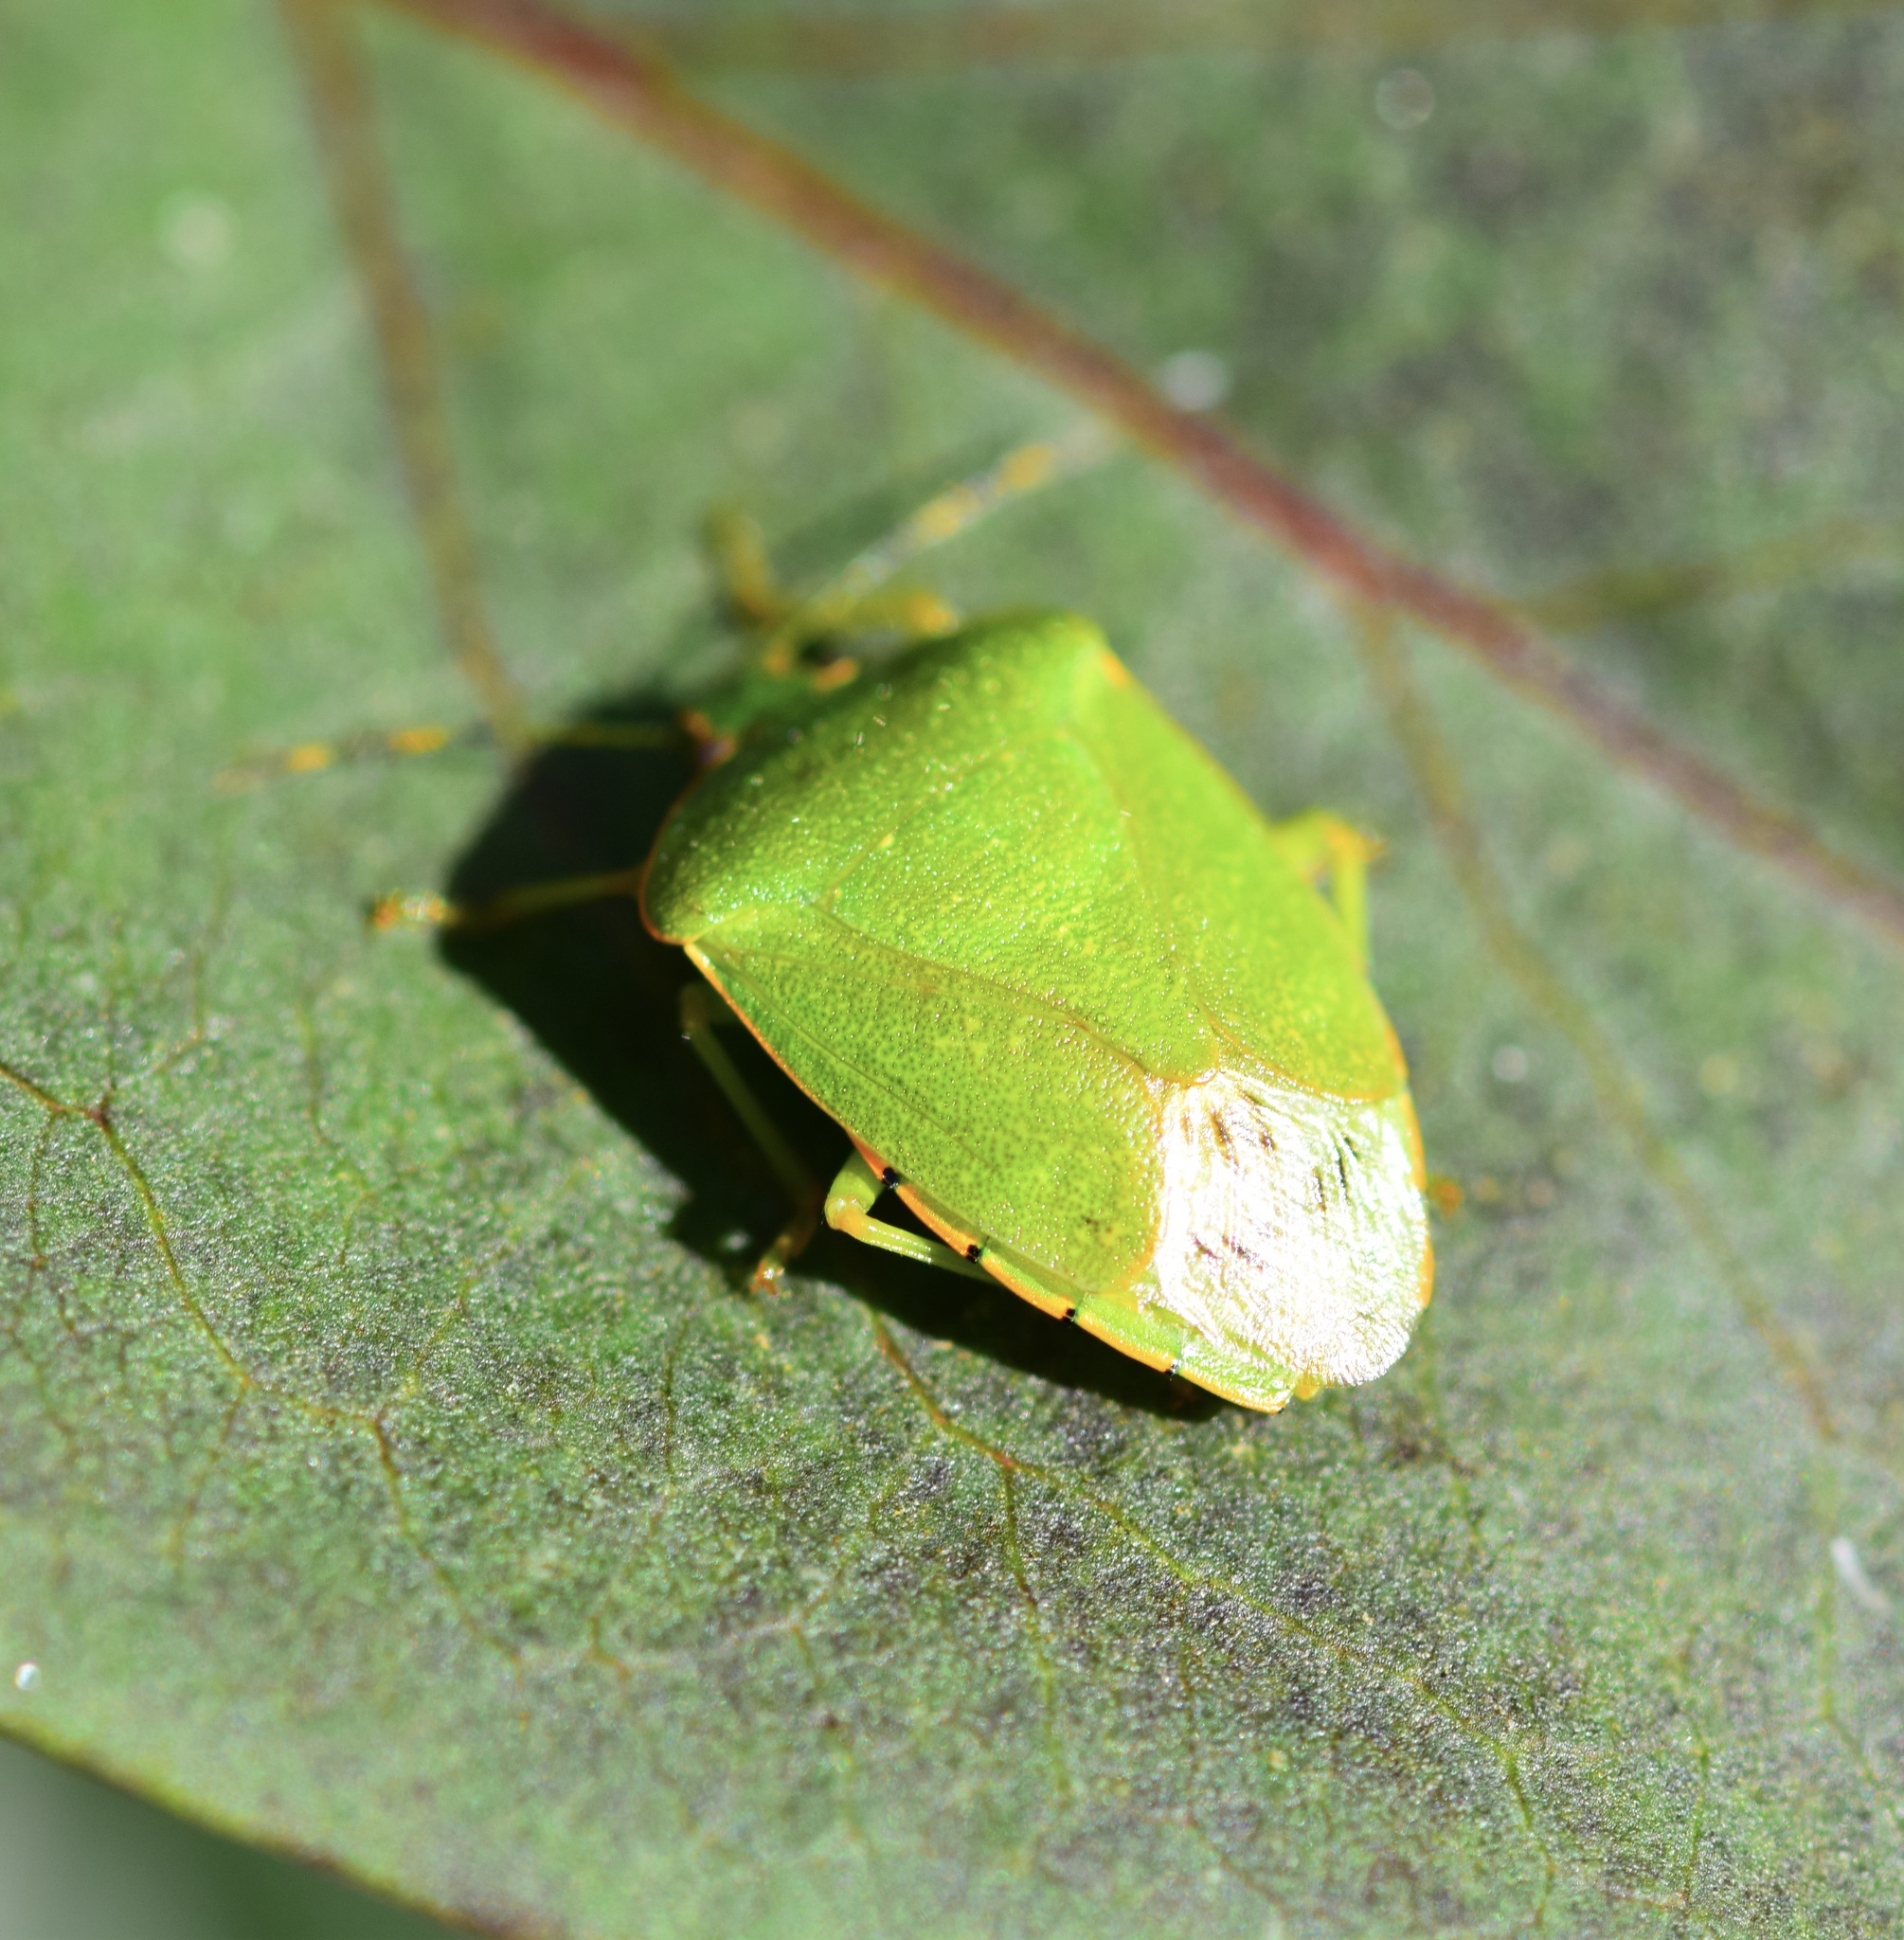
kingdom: Animalia
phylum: Arthropoda
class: Insecta
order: Hemiptera
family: Pentatomidae
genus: Chinavia
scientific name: Chinavia hilaris
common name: Green stink bug
